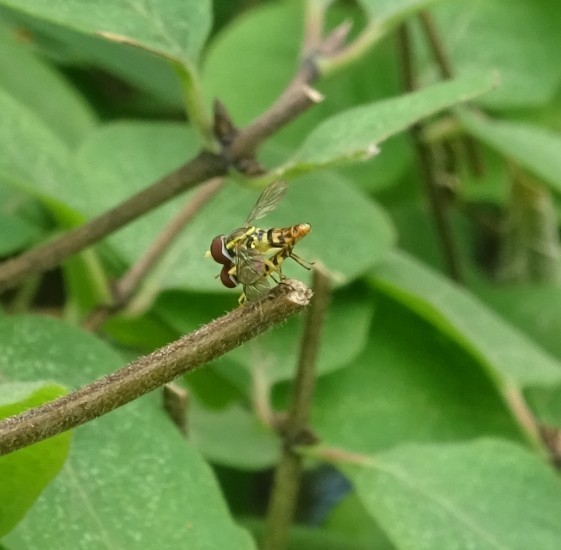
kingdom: Animalia
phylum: Arthropoda
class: Insecta
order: Diptera
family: Syrphidae
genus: Toxomerus
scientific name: Toxomerus geminatus
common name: Eastern calligrapher
